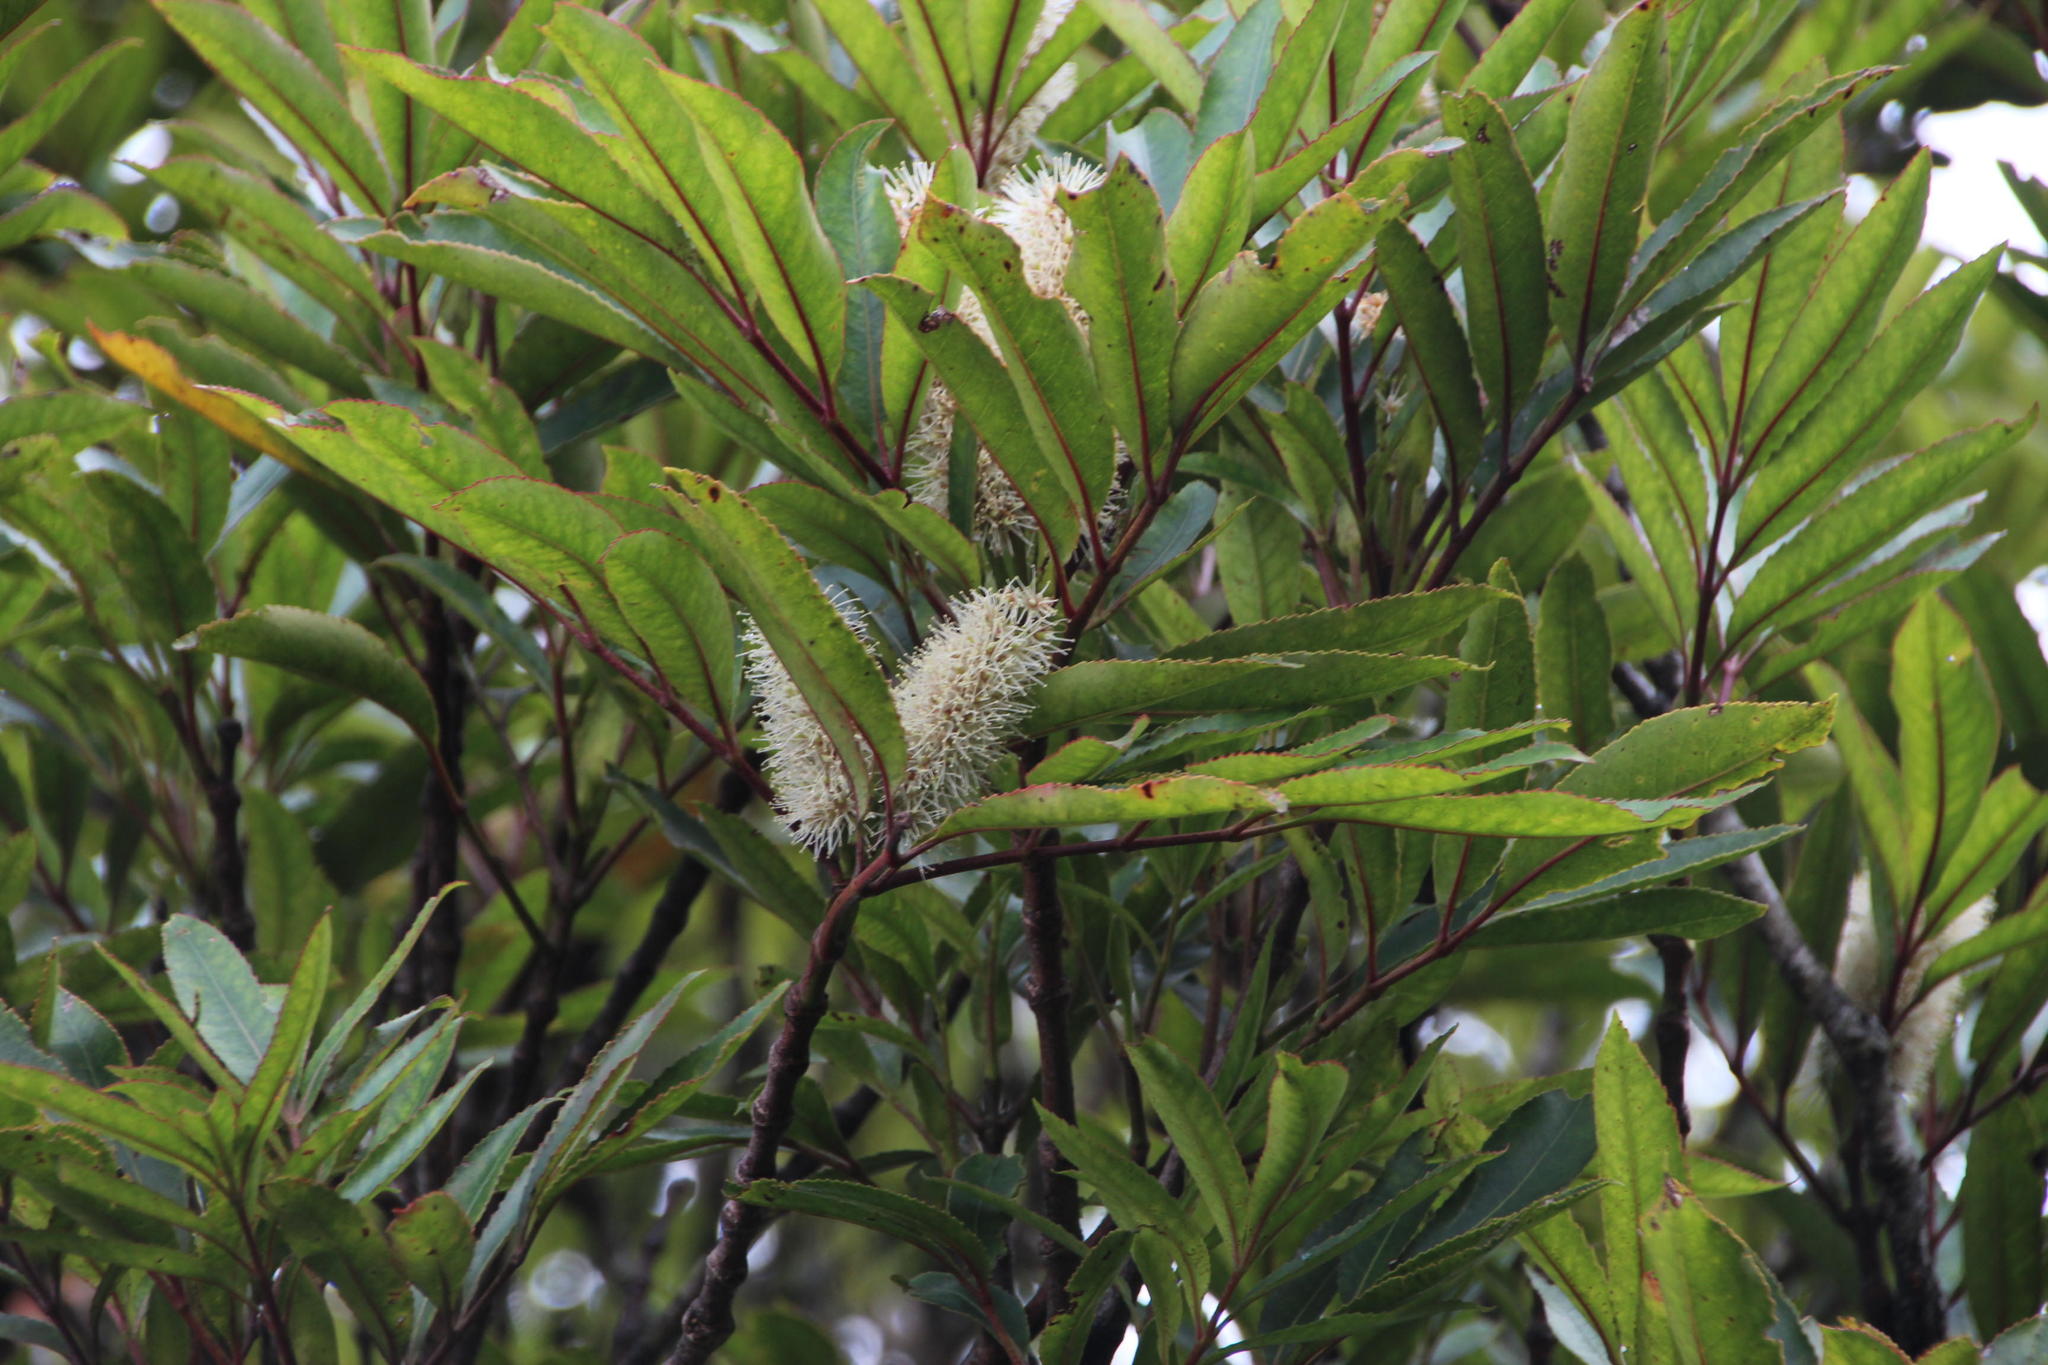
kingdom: Plantae
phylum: Tracheophyta
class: Magnoliopsida
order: Oxalidales
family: Cunoniaceae
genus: Cunonia
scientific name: Cunonia capensis
